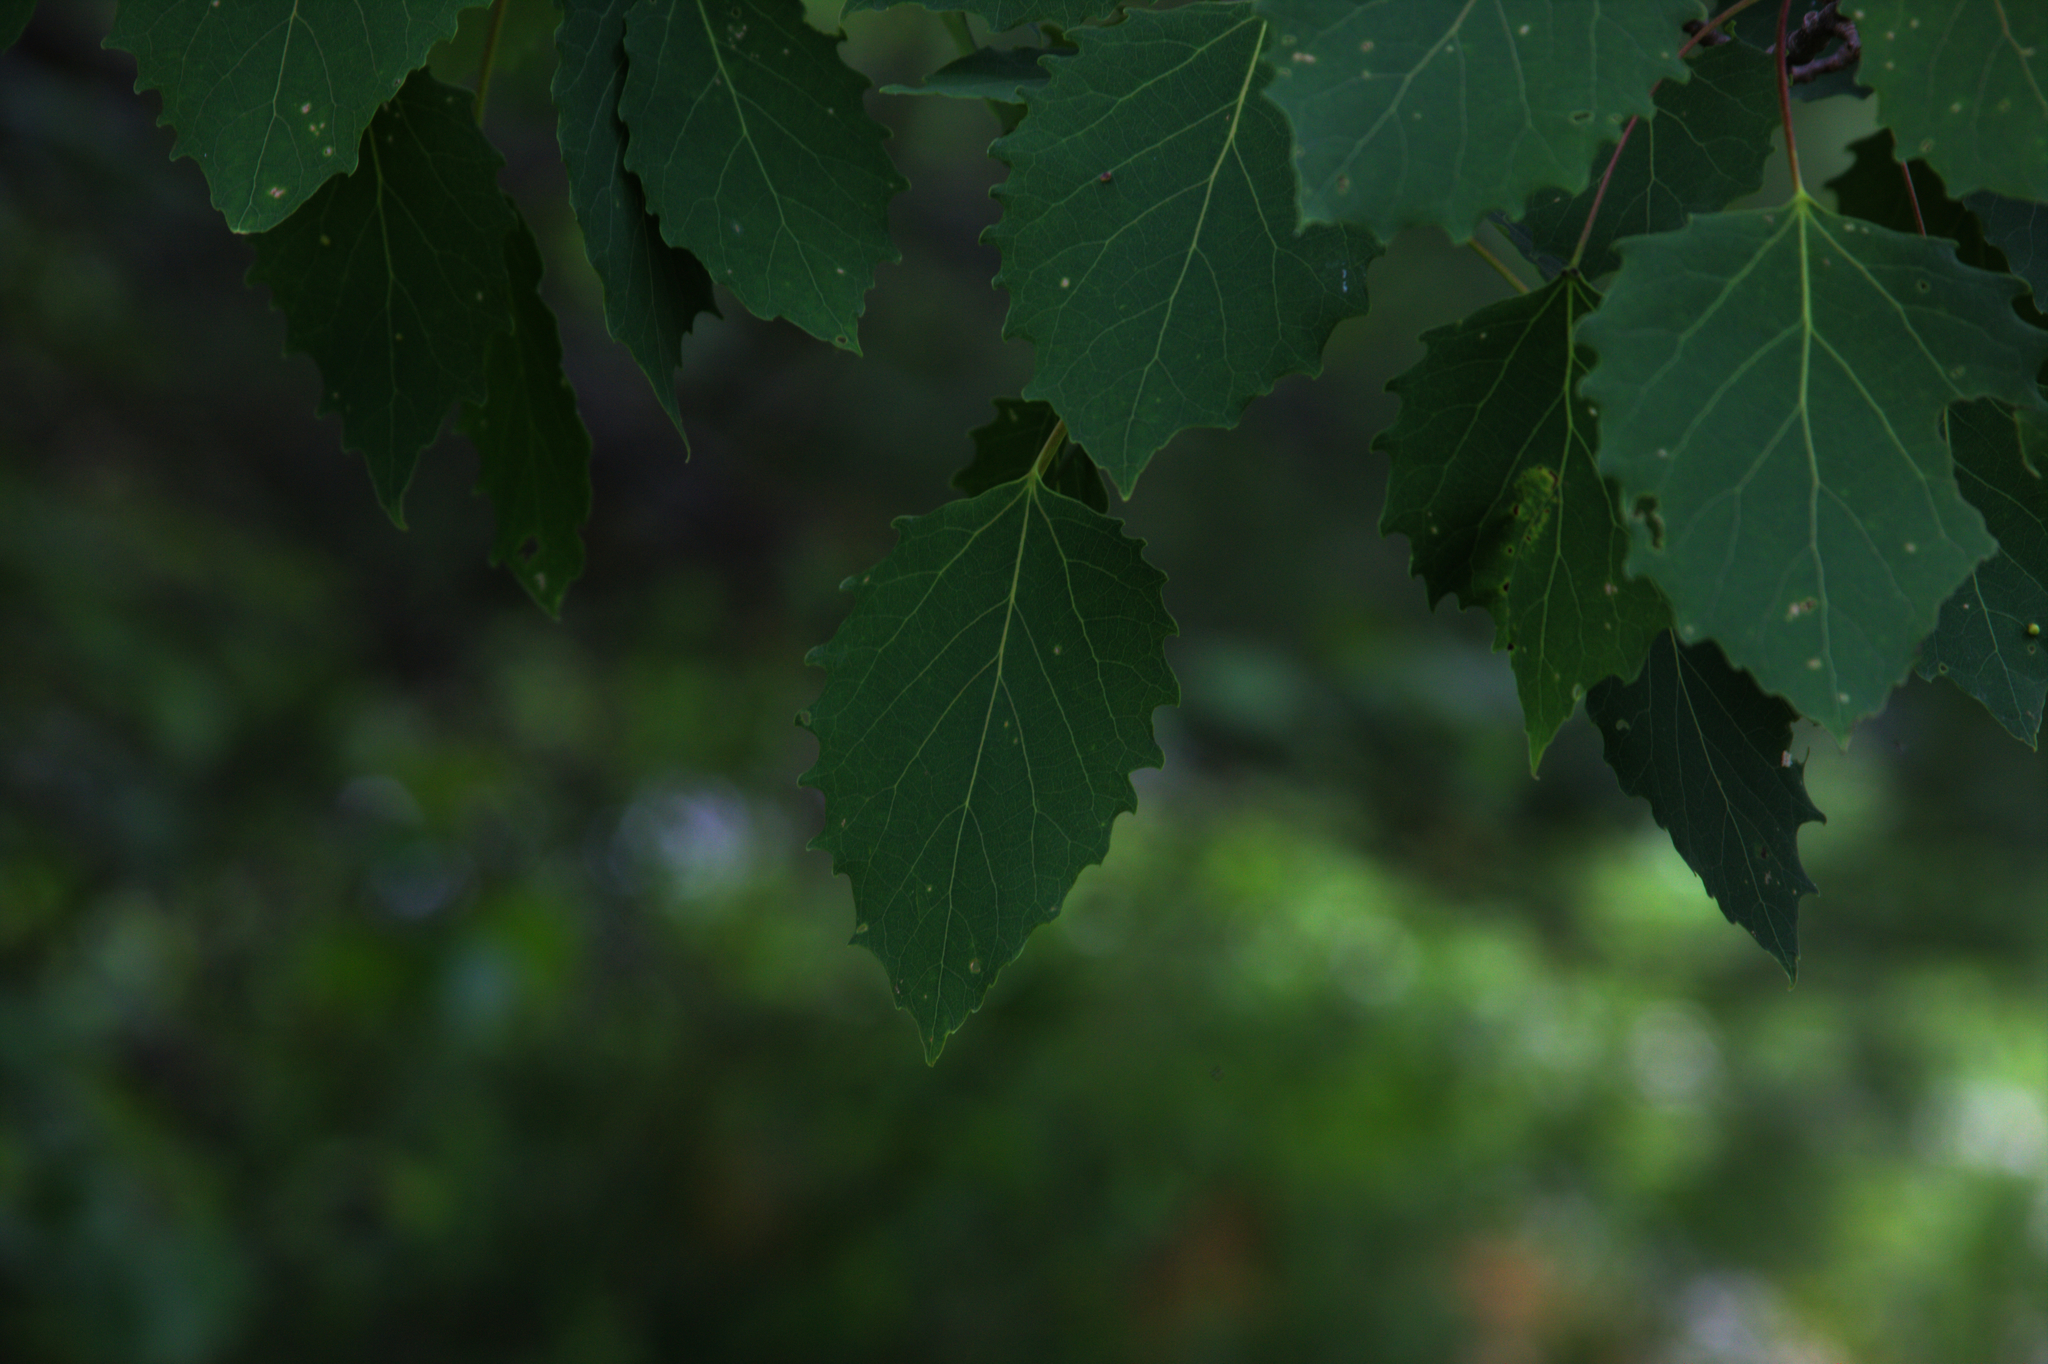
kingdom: Plantae
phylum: Tracheophyta
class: Magnoliopsida
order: Malpighiales
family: Salicaceae
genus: Populus
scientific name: Populus grandidentata
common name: Bigtooth aspen
